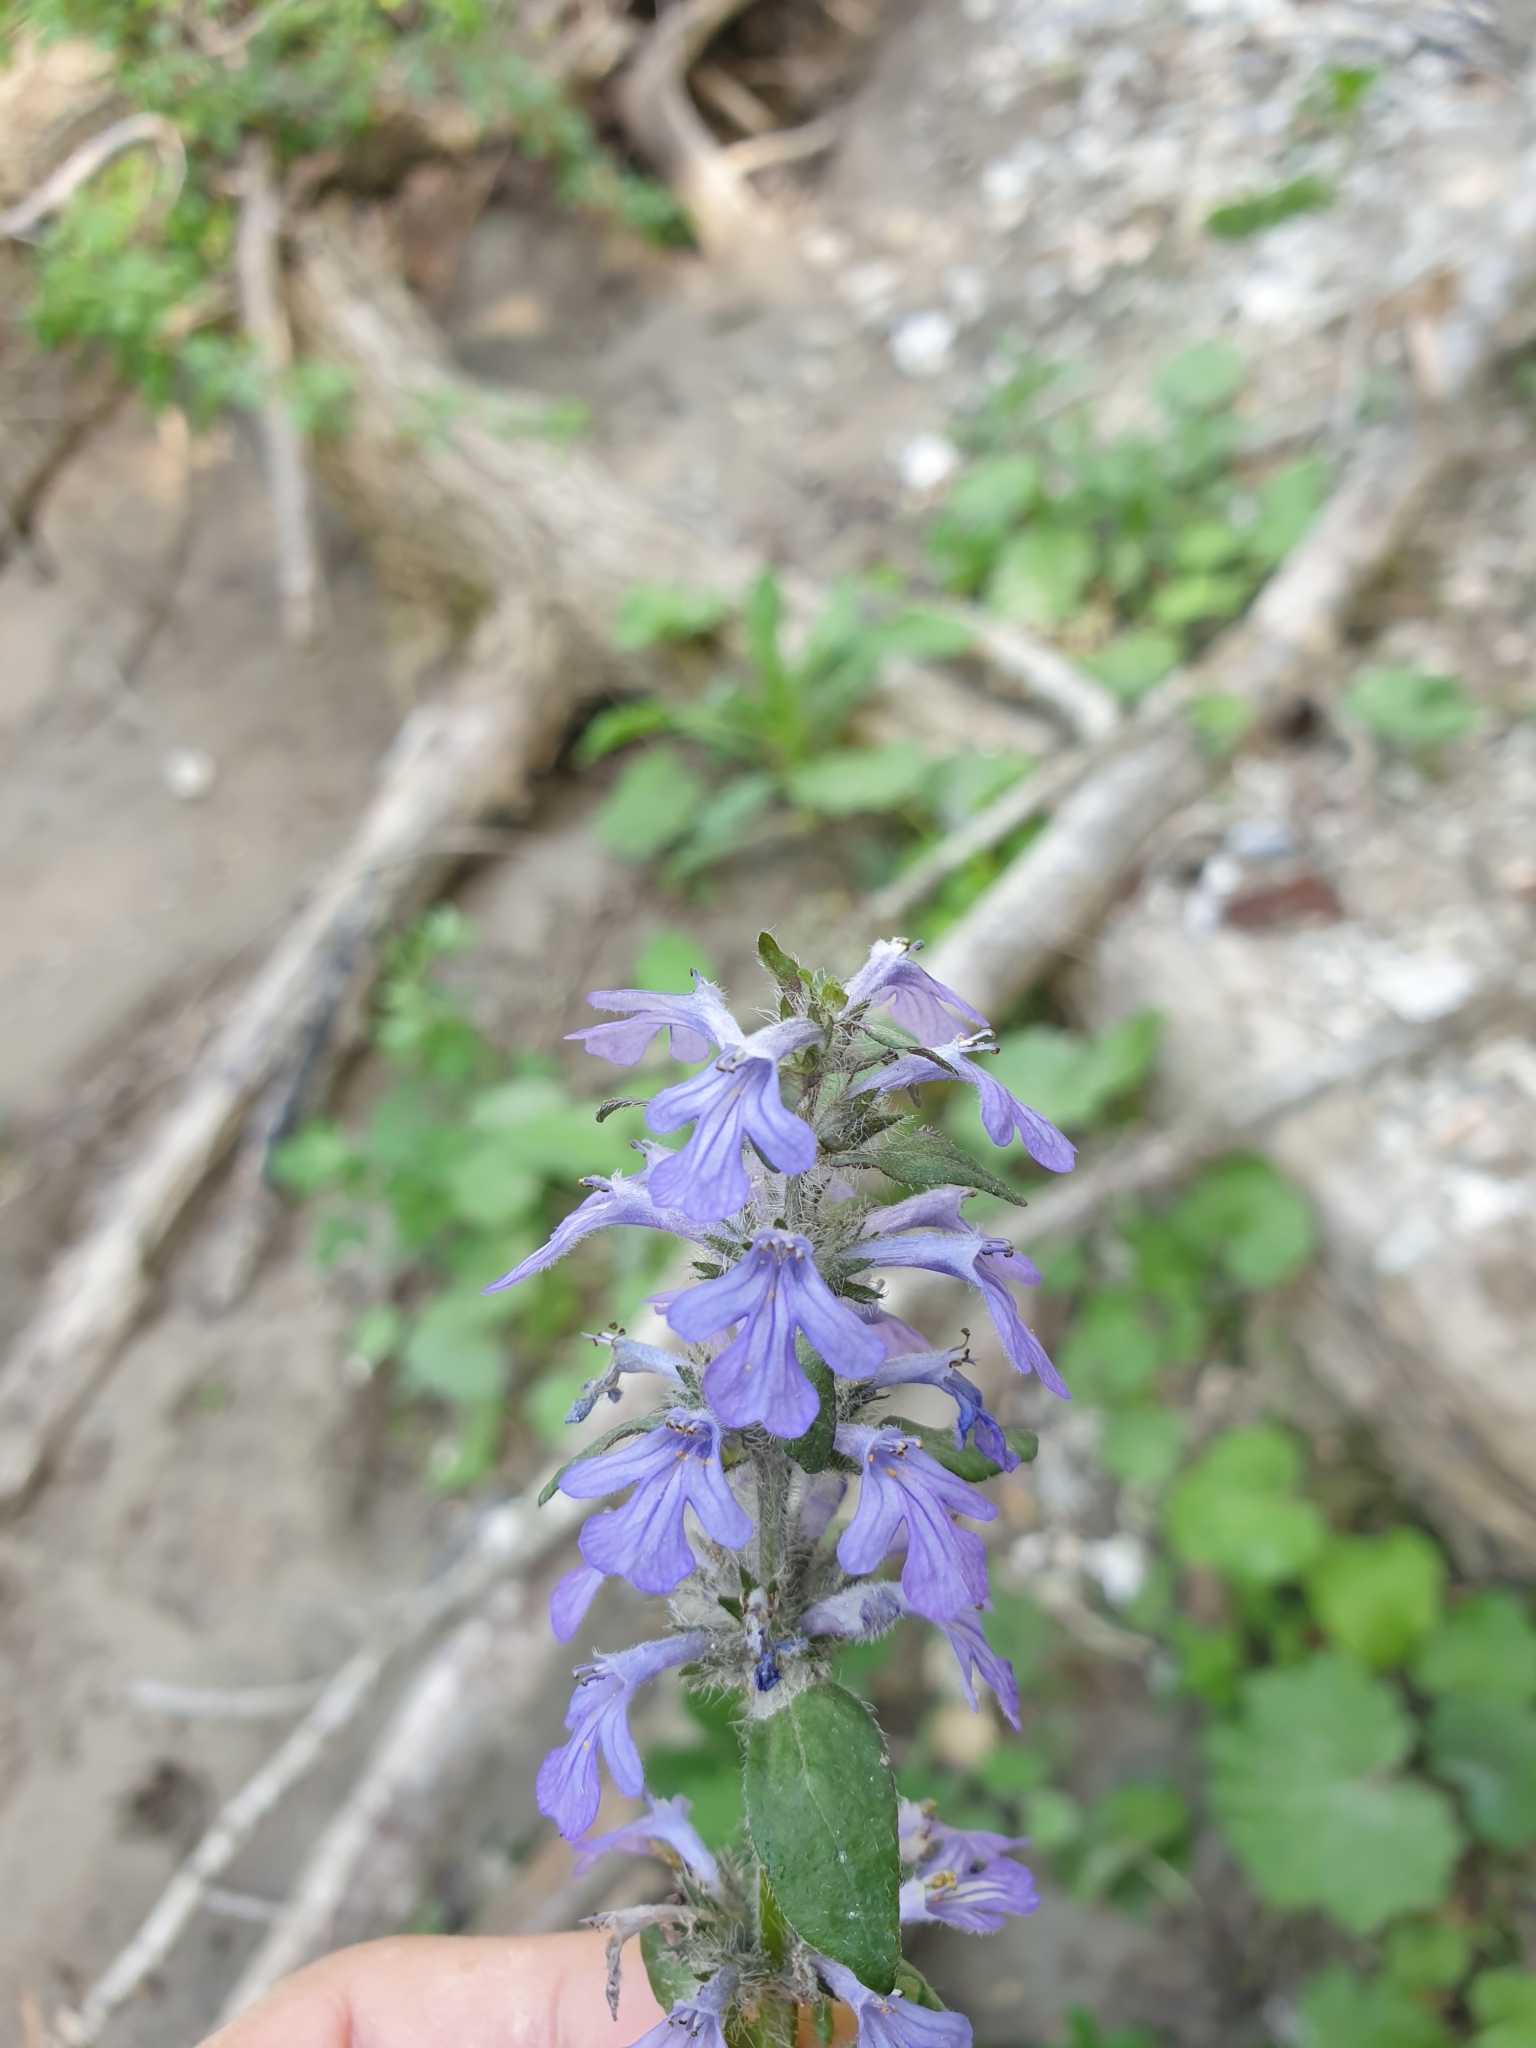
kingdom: Plantae
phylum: Tracheophyta
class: Magnoliopsida
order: Lamiales
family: Lamiaceae
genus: Ajuga
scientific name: Ajuga reptans
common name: Bugle
